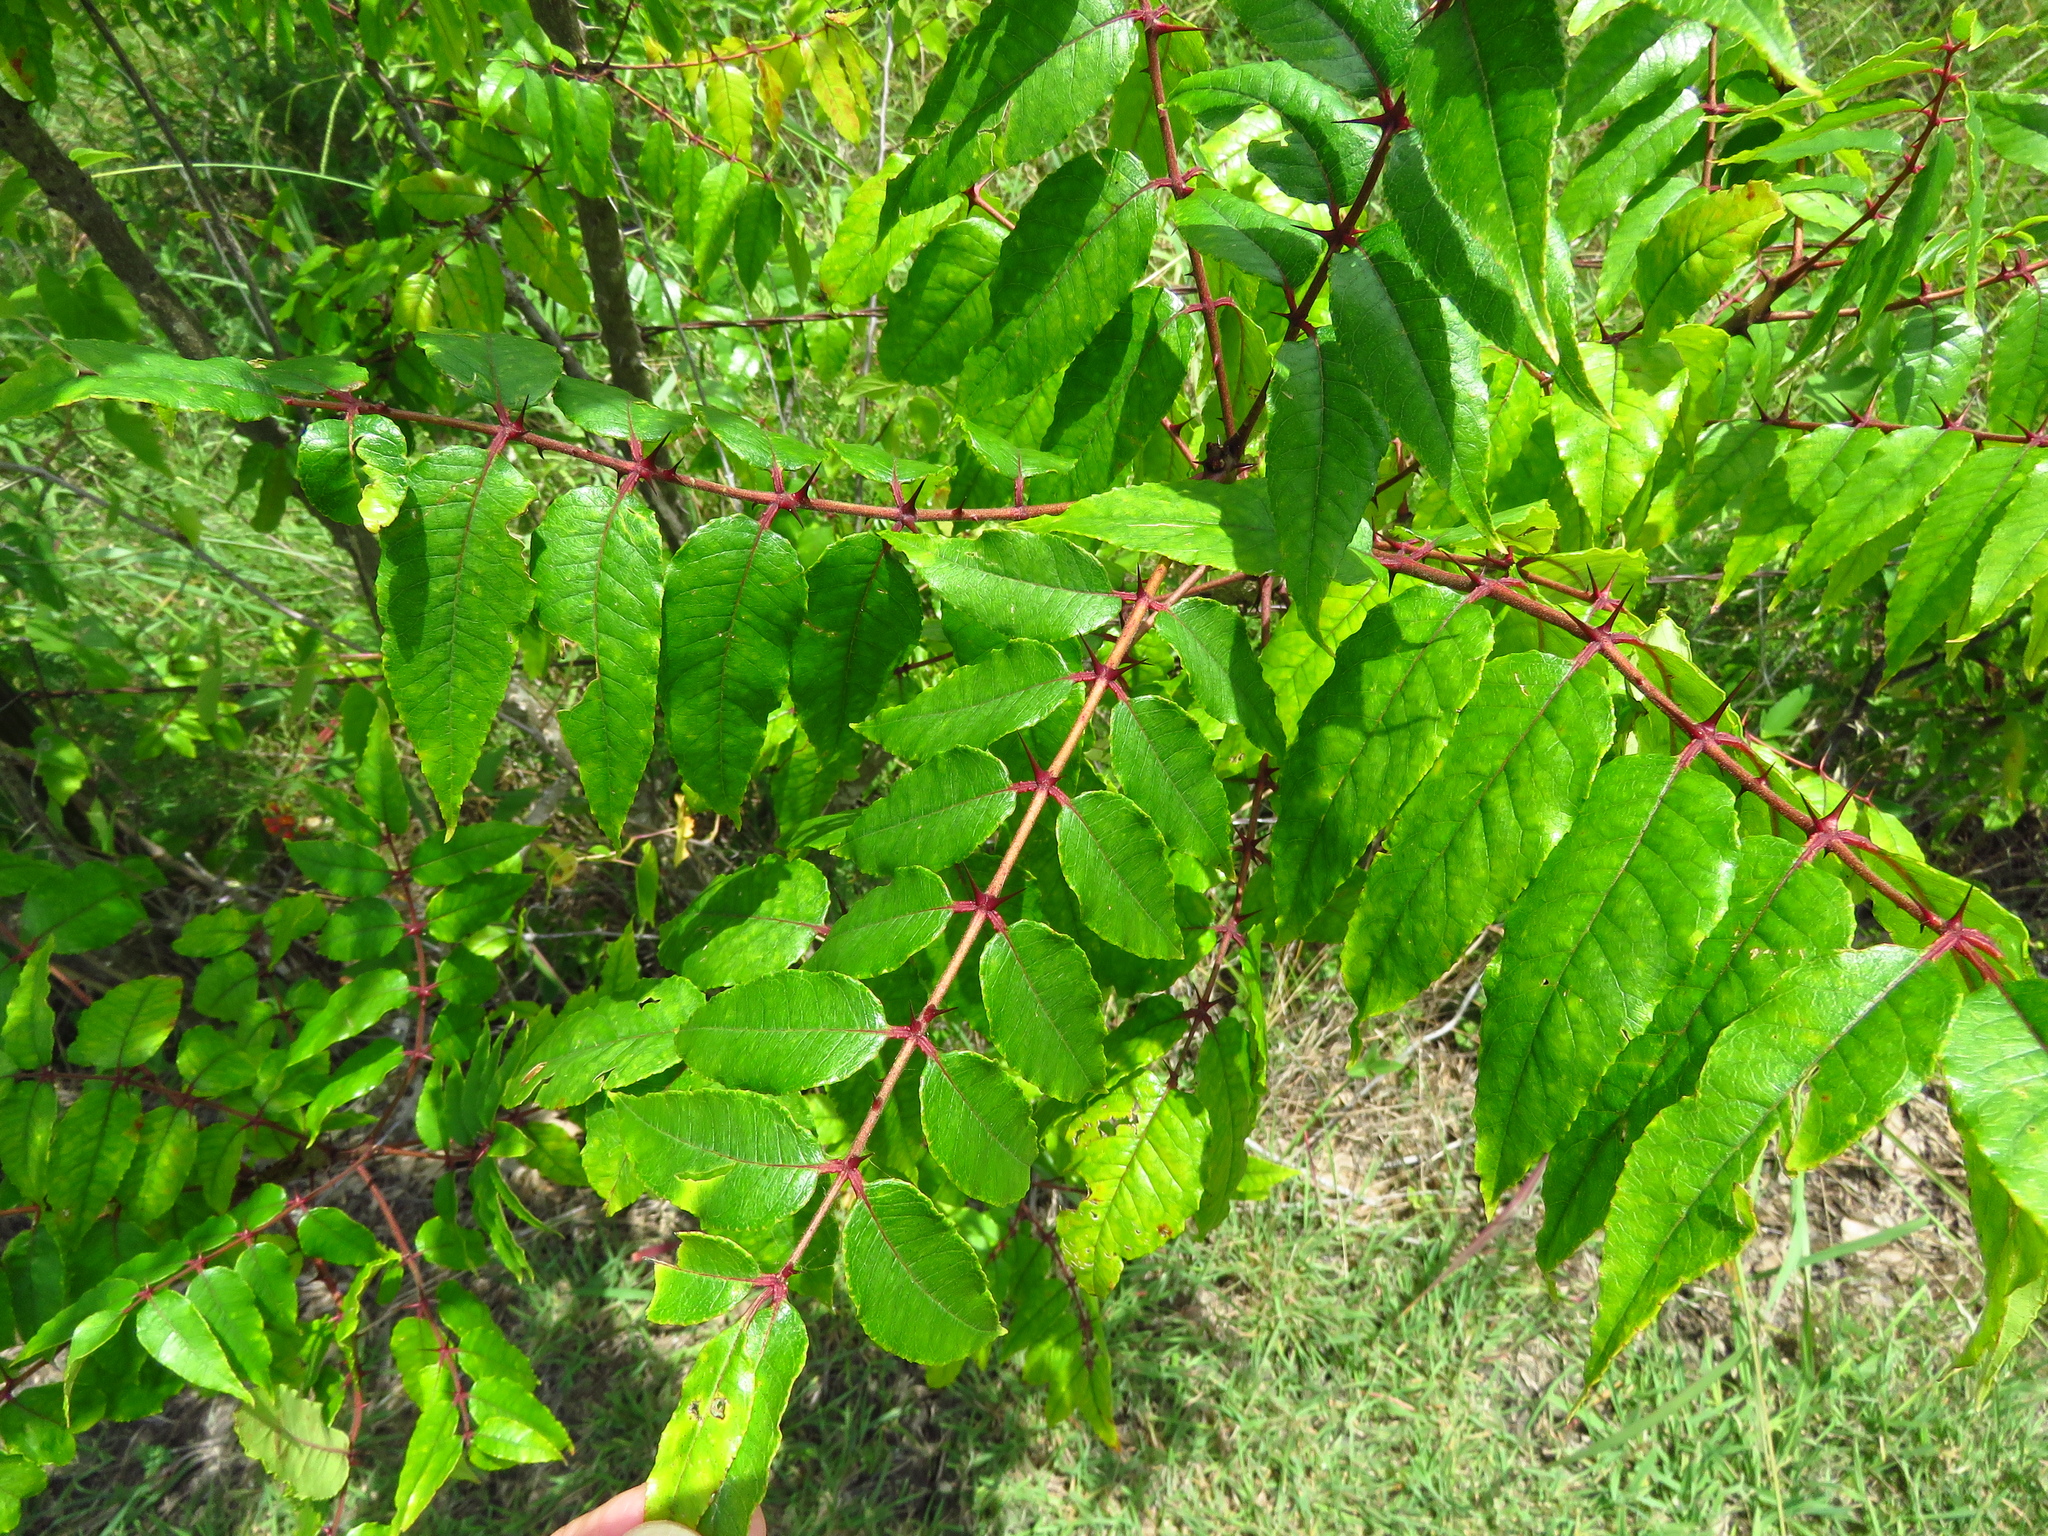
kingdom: Plantae
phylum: Tracheophyta
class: Magnoliopsida
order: Sapindales
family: Rutaceae
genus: Zanthoxylum
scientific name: Zanthoxylum clava-herculis
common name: Hercules'-club
